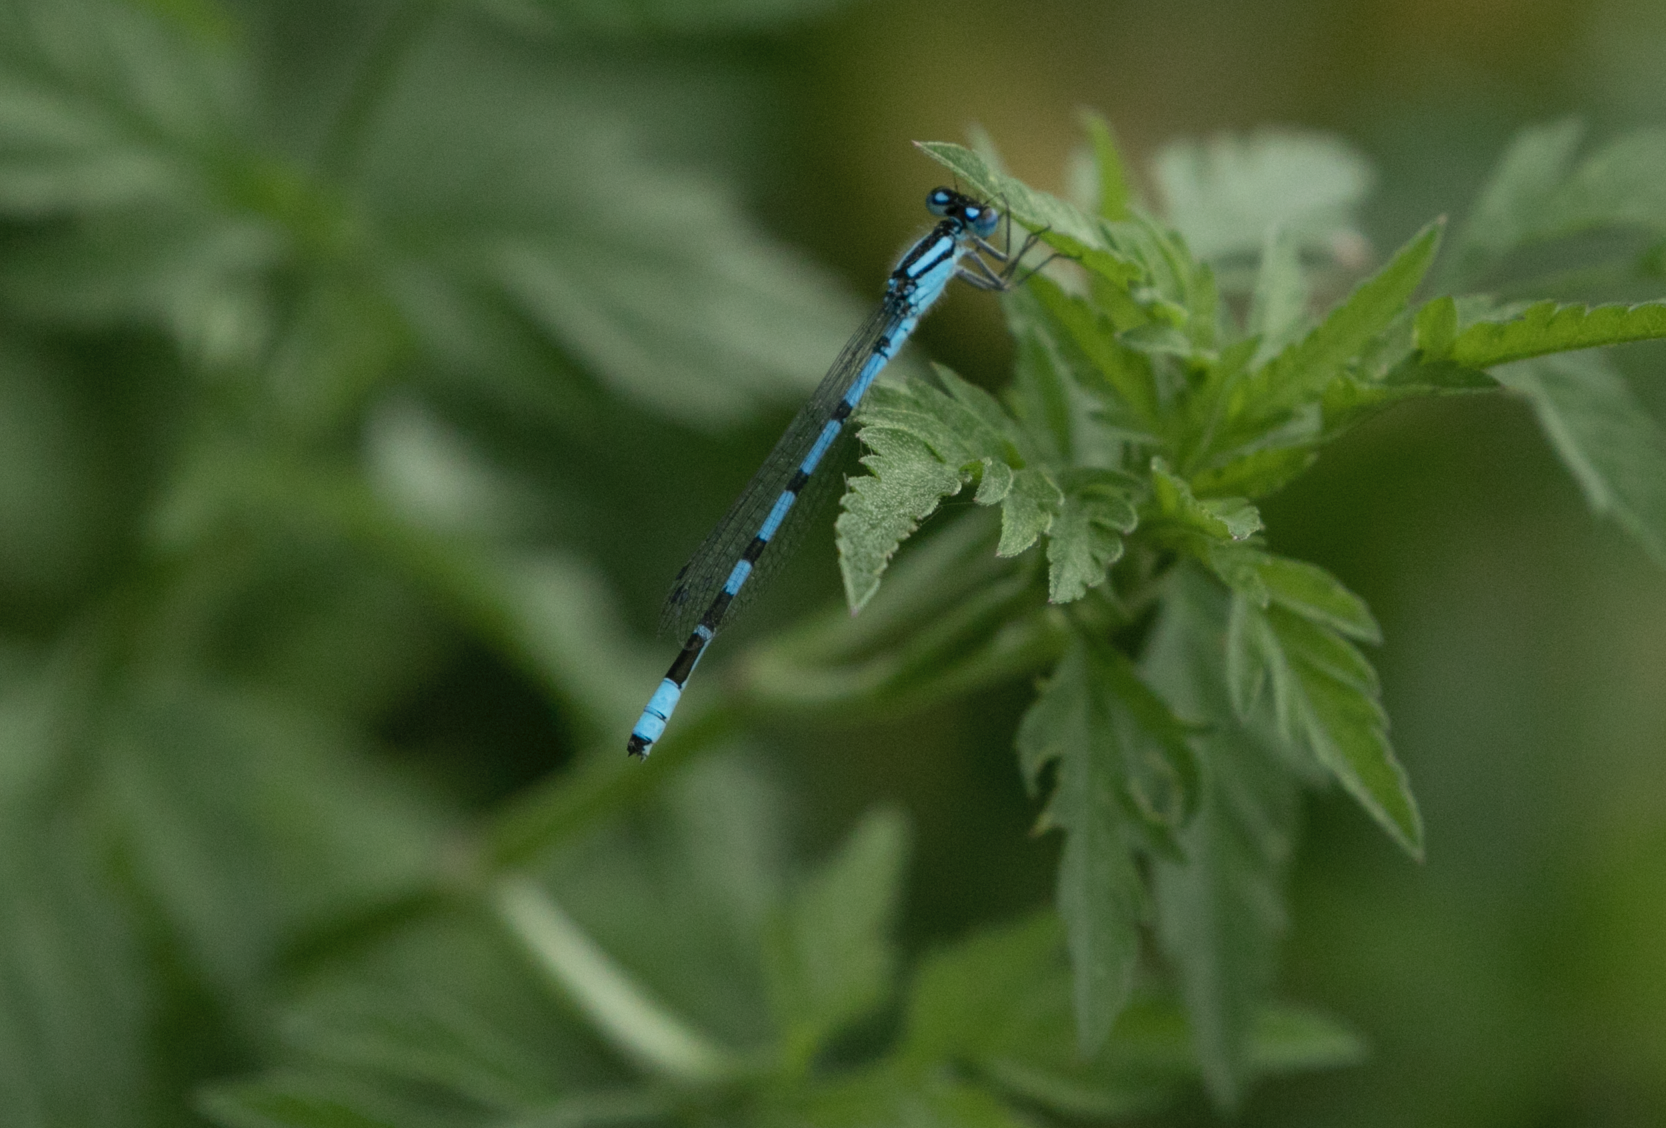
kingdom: Animalia
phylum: Arthropoda
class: Insecta
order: Odonata
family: Coenagrionidae
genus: Enallagma
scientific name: Enallagma cyathigerum
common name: Common blue damselfly
